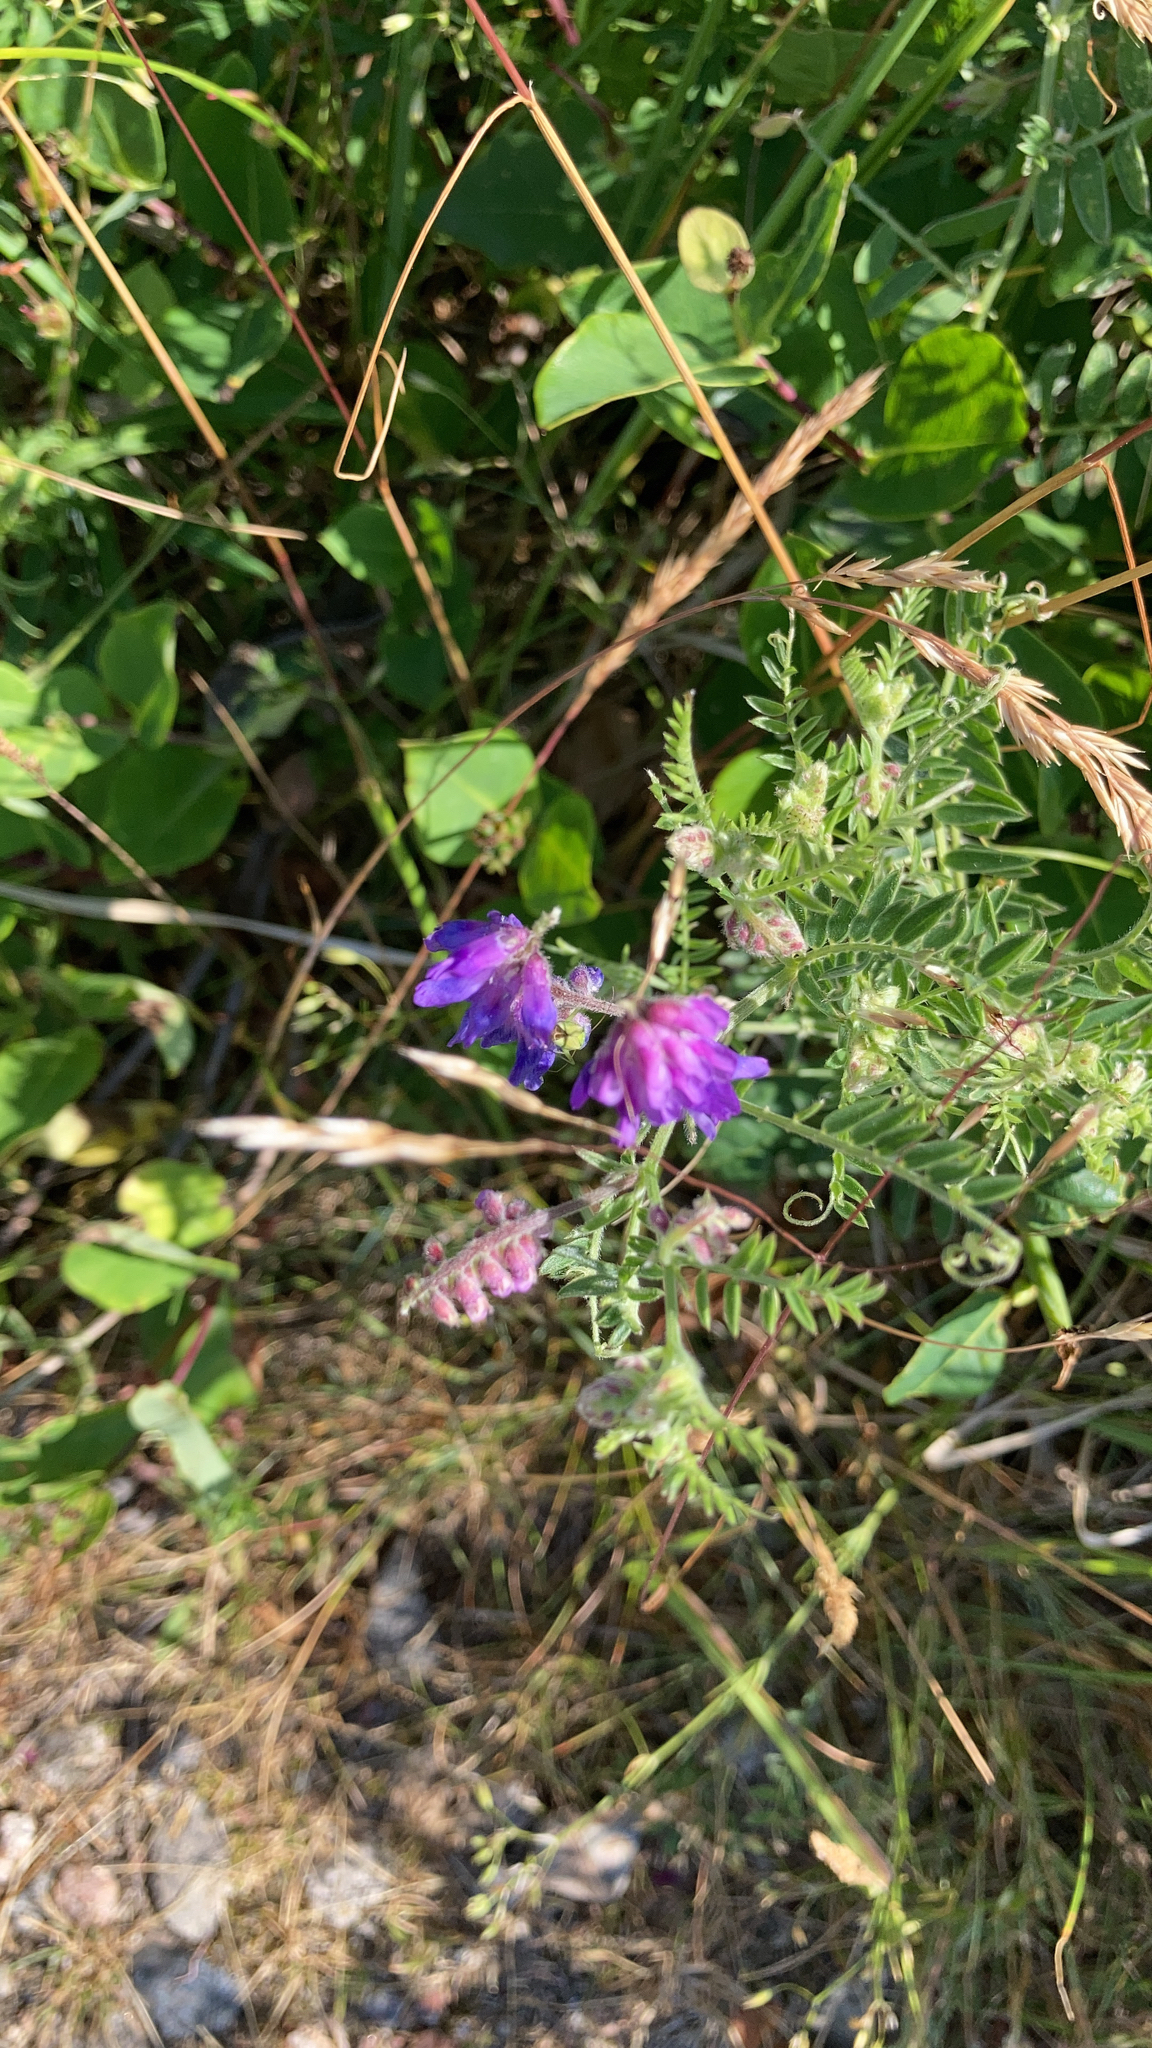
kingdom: Plantae
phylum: Tracheophyta
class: Magnoliopsida
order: Fabales
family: Fabaceae
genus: Vicia
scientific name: Vicia cracca
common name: Bird vetch
